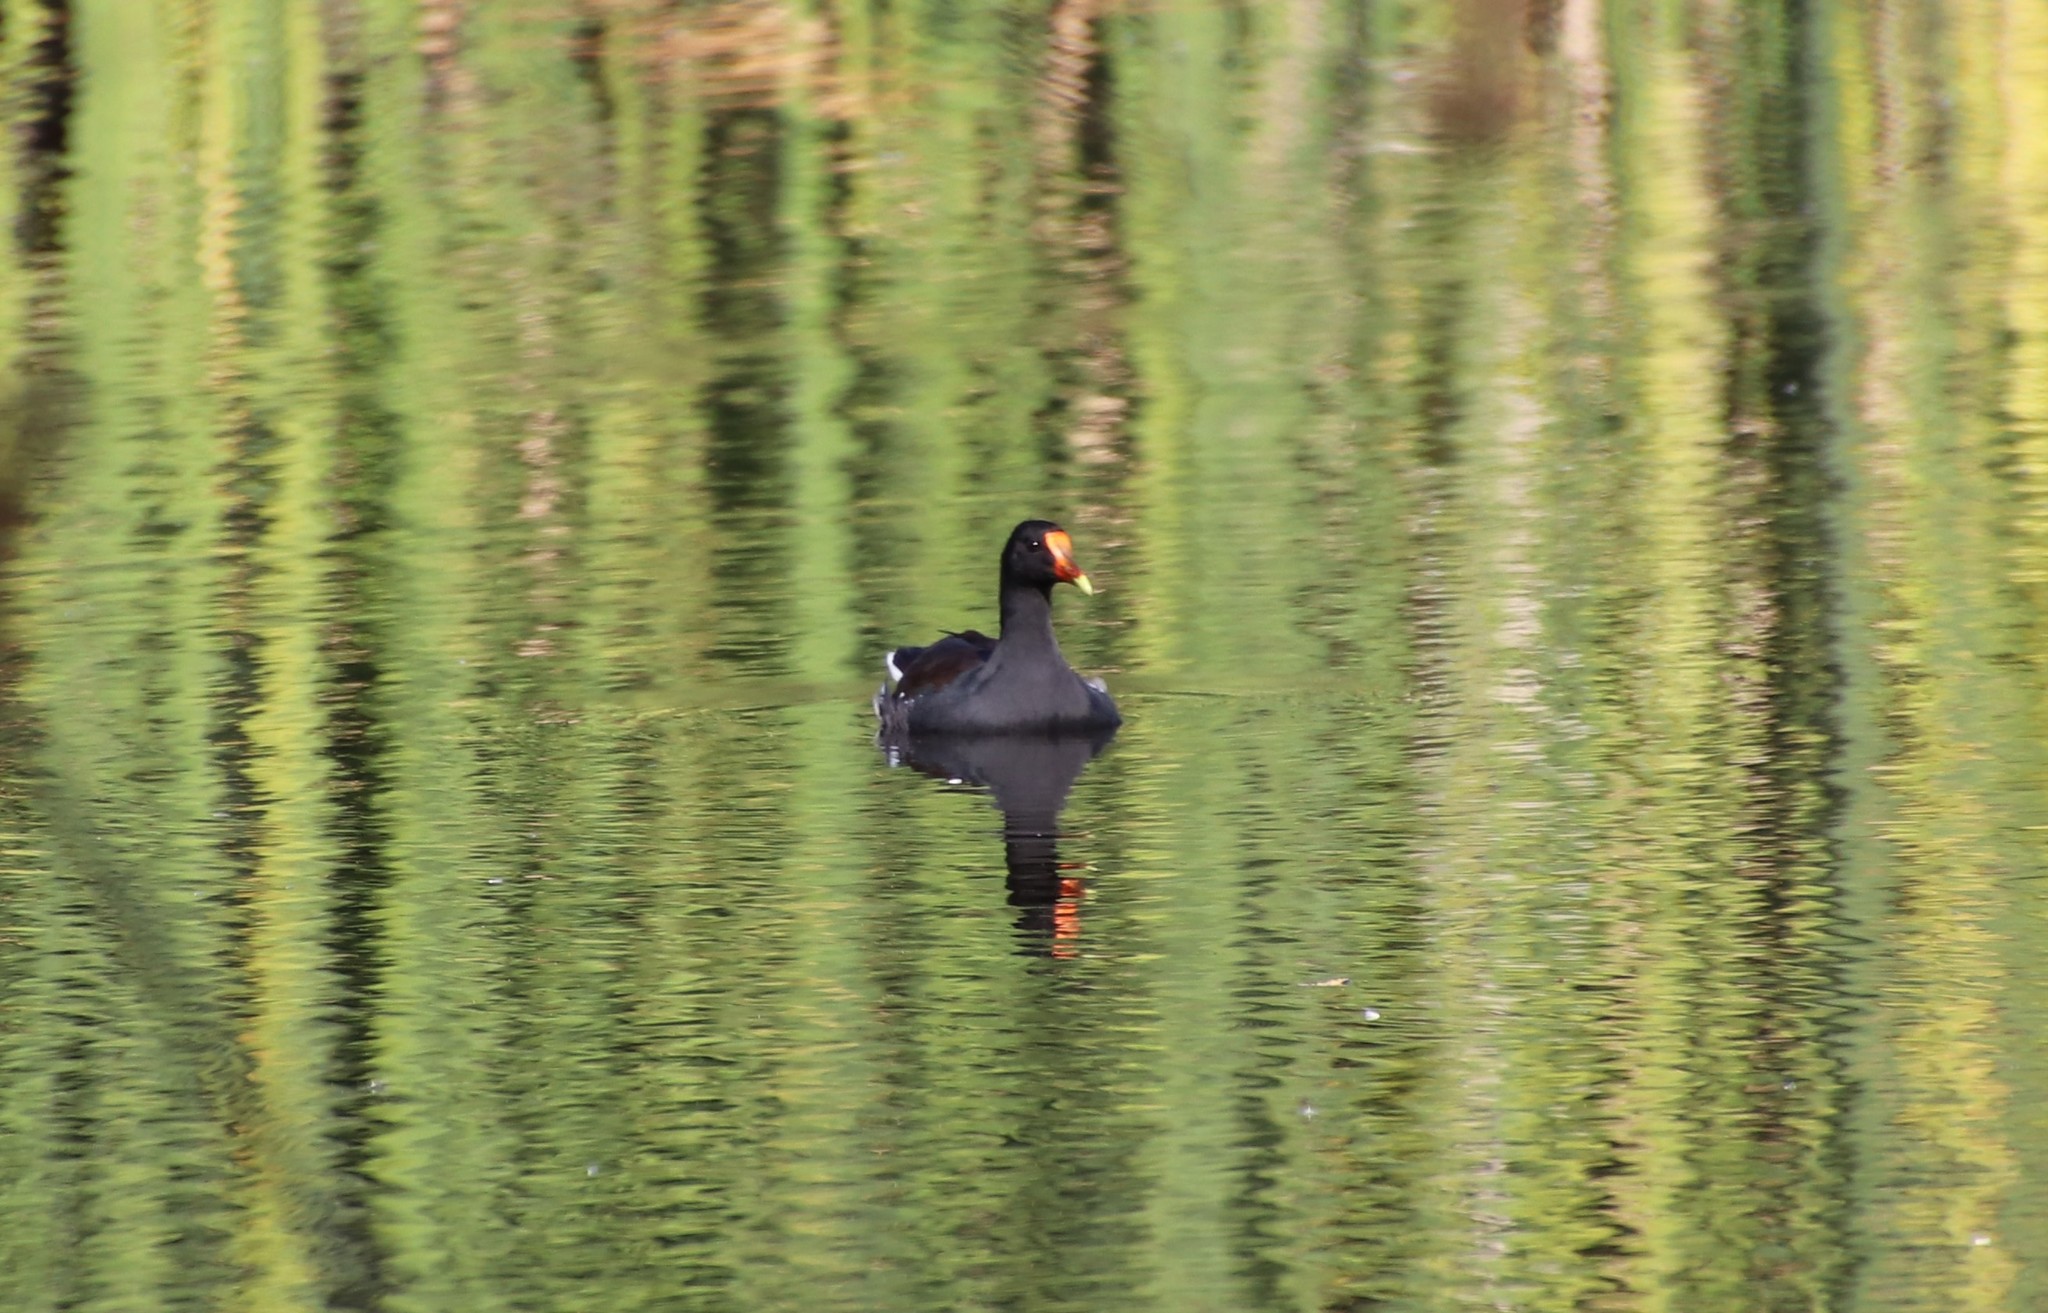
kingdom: Animalia
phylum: Chordata
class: Aves
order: Gruiformes
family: Rallidae
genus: Gallinula
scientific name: Gallinula chloropus
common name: Common moorhen
